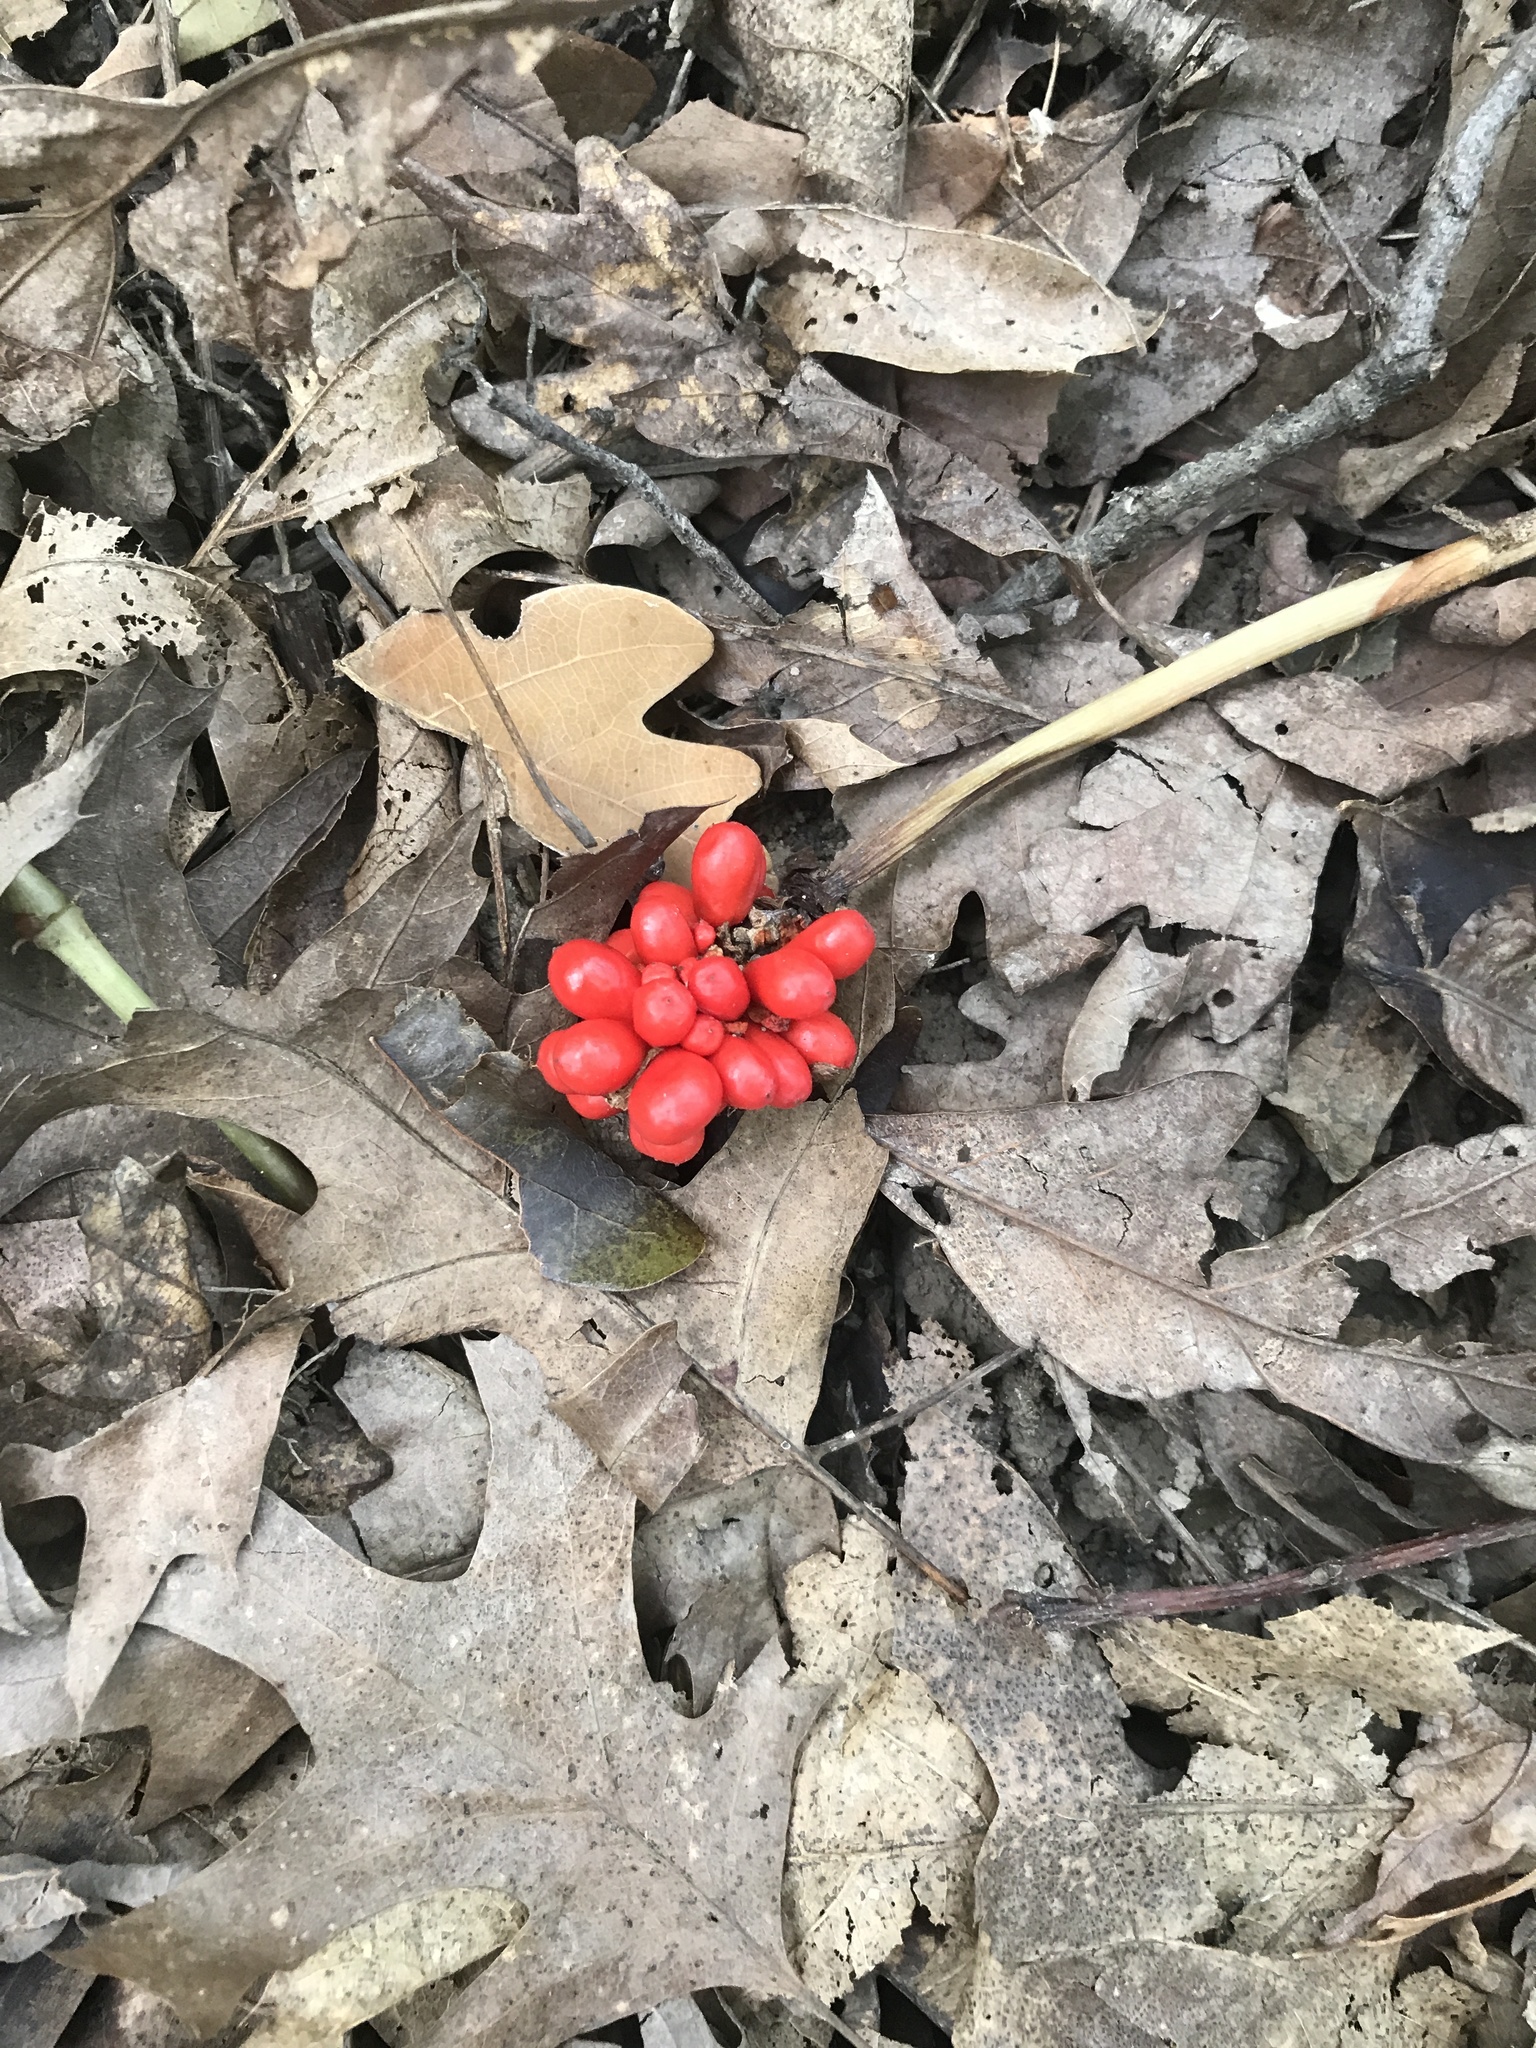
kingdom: Plantae
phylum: Tracheophyta
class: Liliopsida
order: Alismatales
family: Araceae
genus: Arisaema
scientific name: Arisaema triphyllum
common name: Jack-in-the-pulpit
